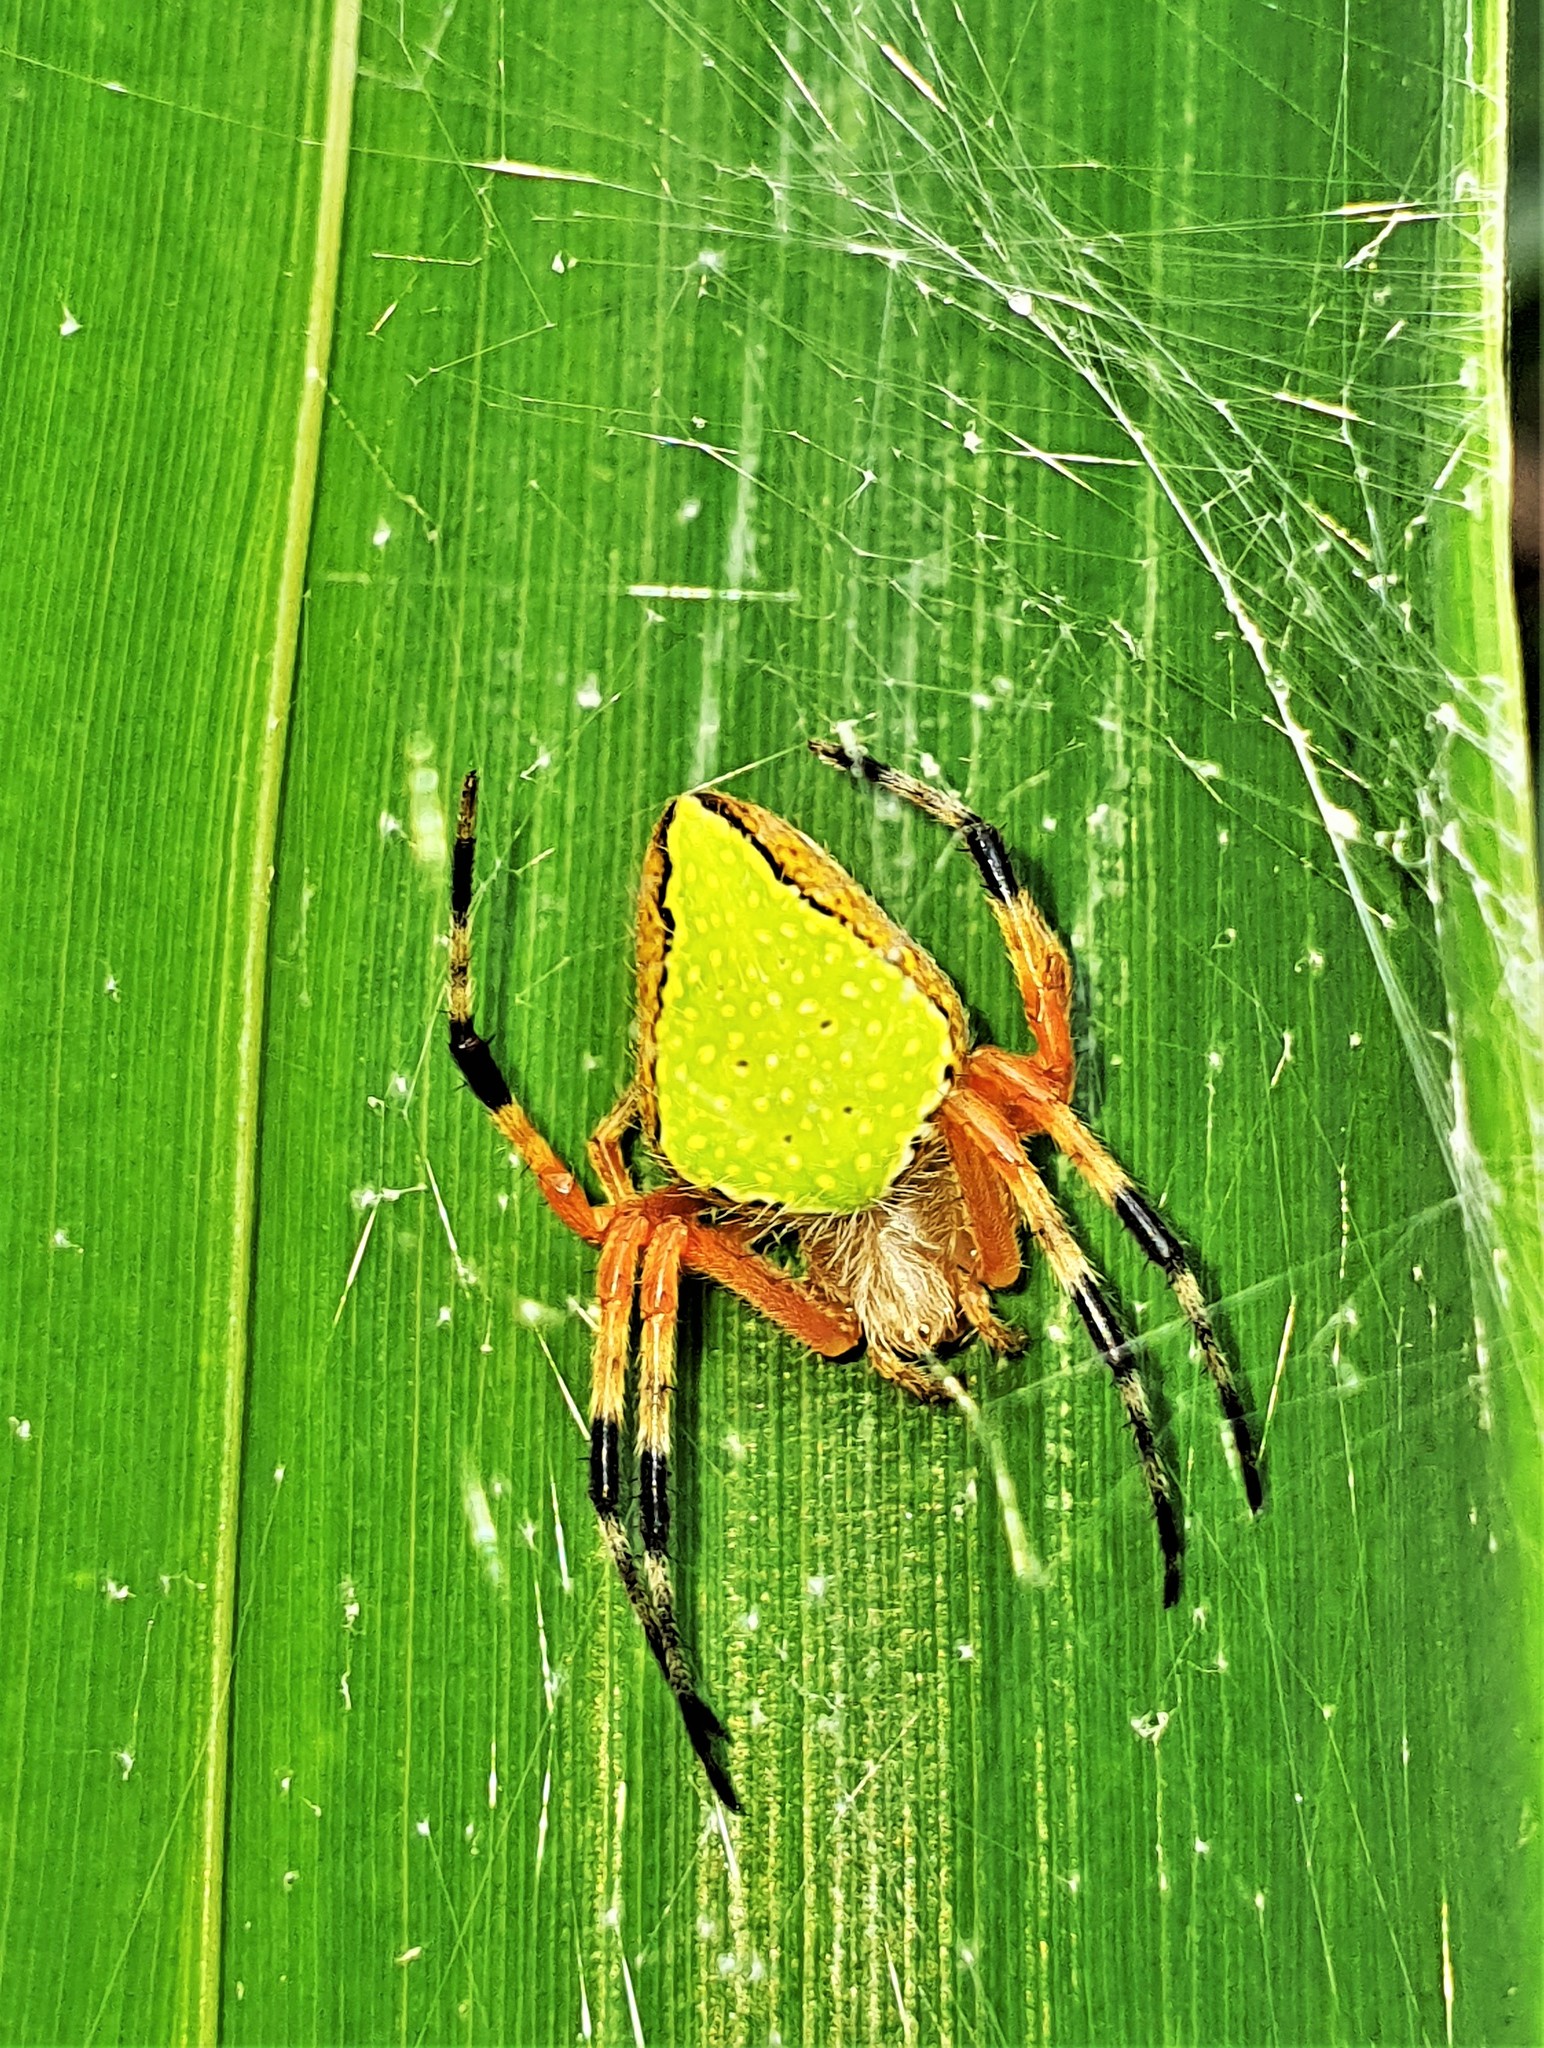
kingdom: Animalia
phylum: Arthropoda
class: Arachnida
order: Araneae
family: Araneidae
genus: Eriophora
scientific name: Eriophora nephiloides
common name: Orb weavers
